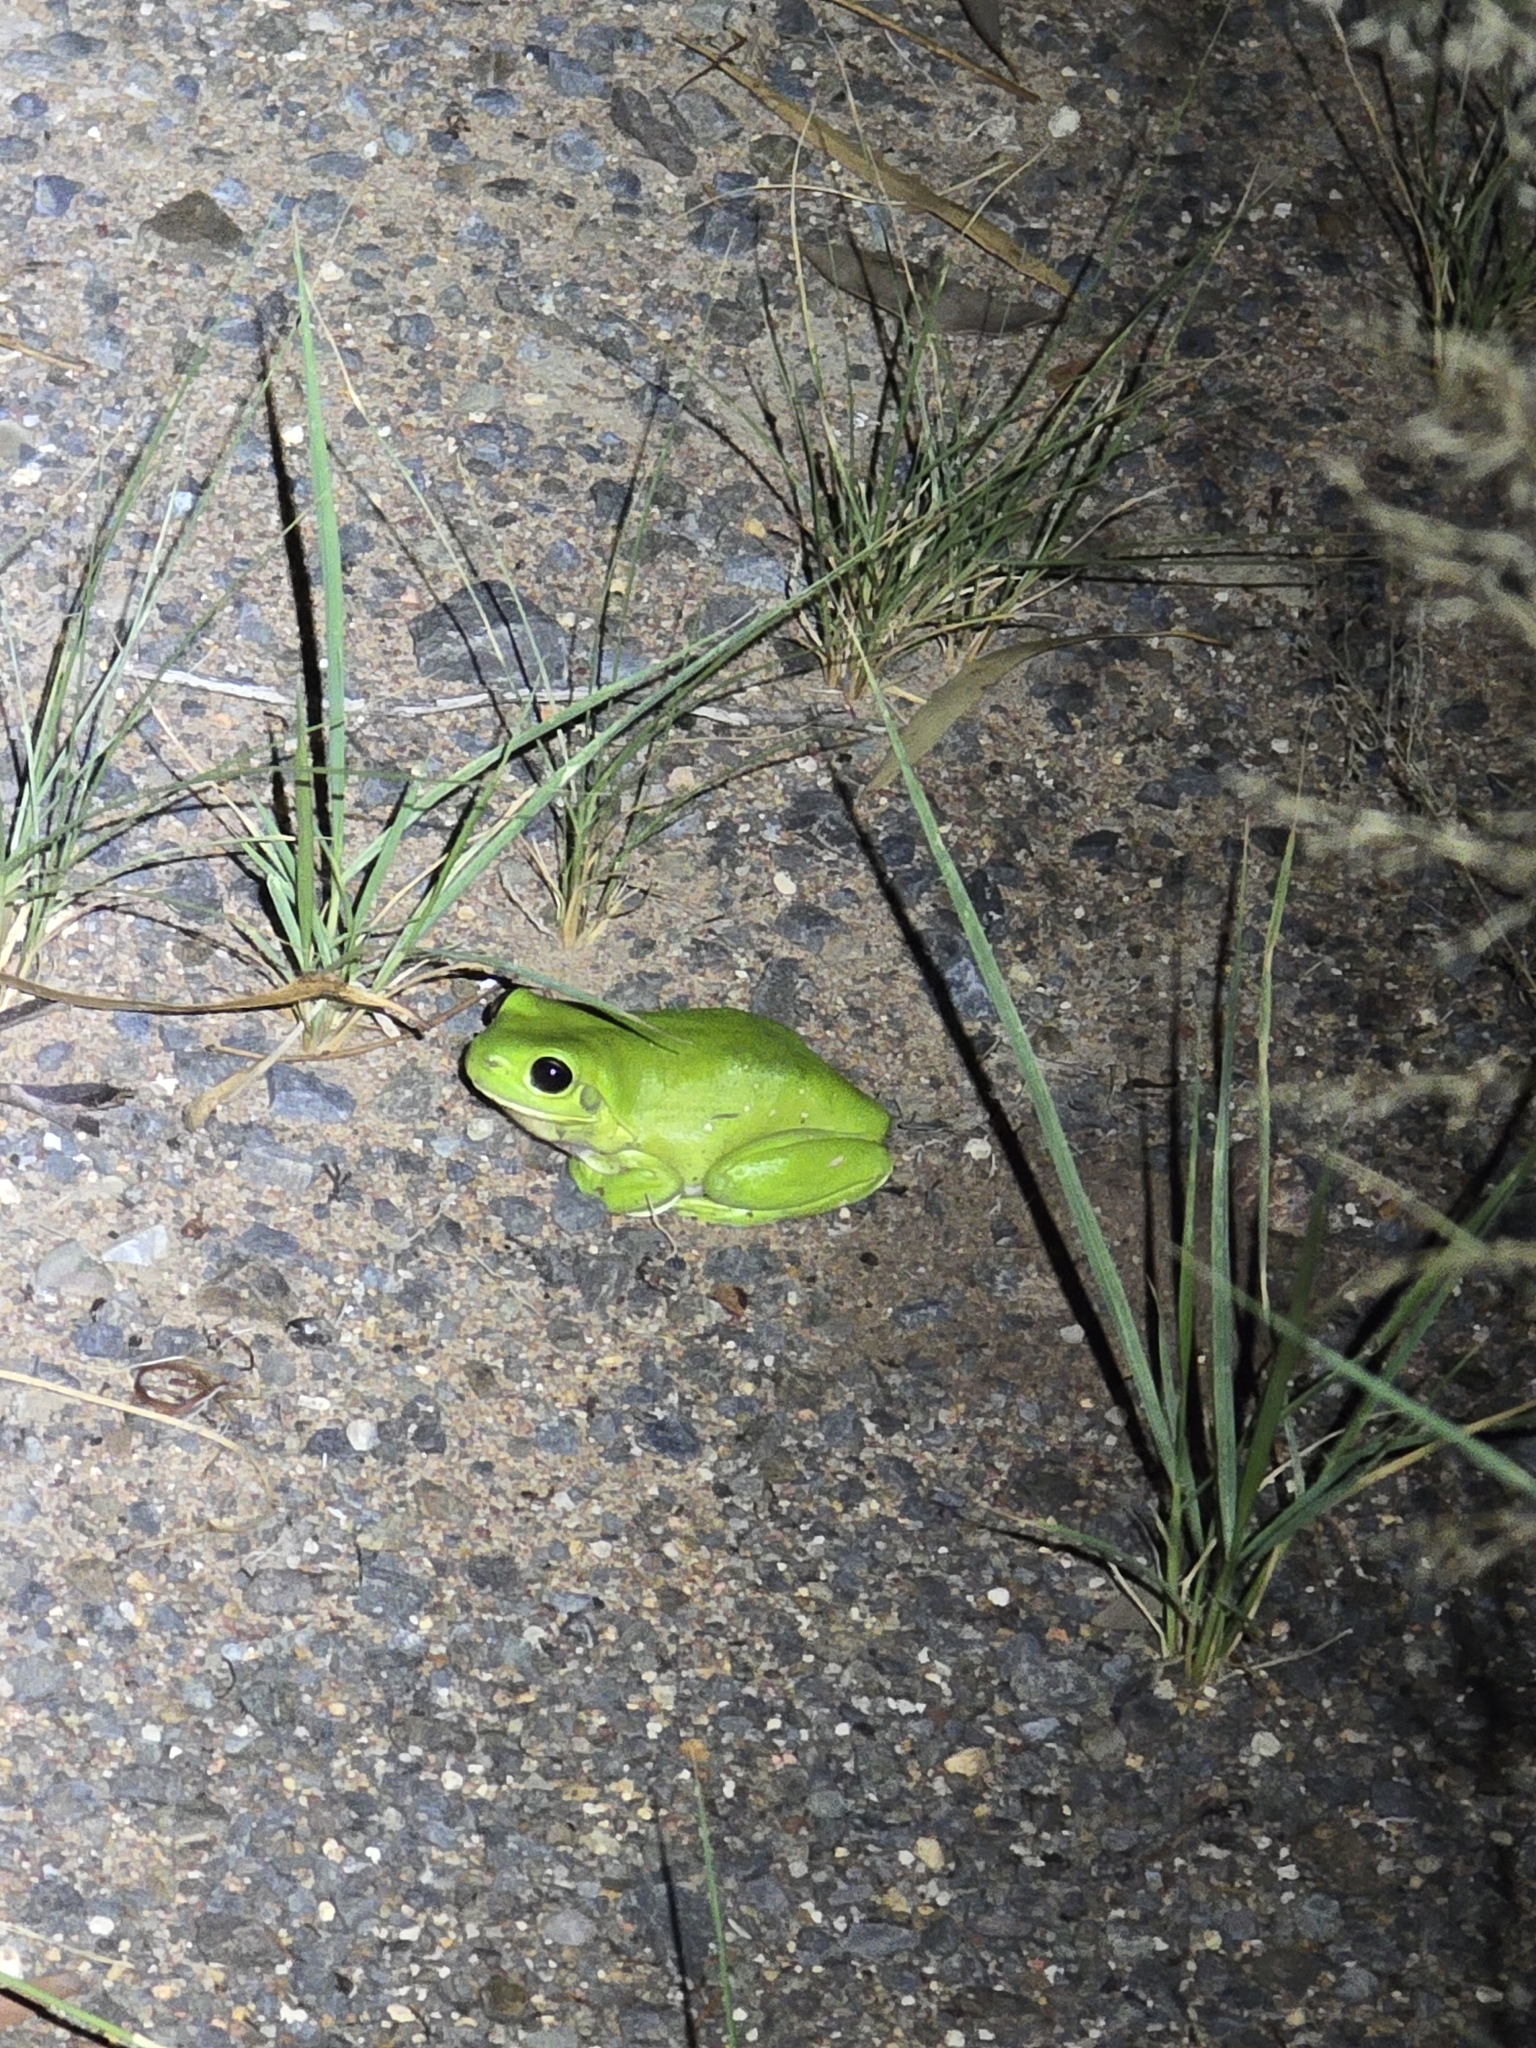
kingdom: Animalia
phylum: Chordata
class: Amphibia
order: Anura
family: Pelodryadidae
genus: Ranoidea
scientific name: Ranoidea caerulea
